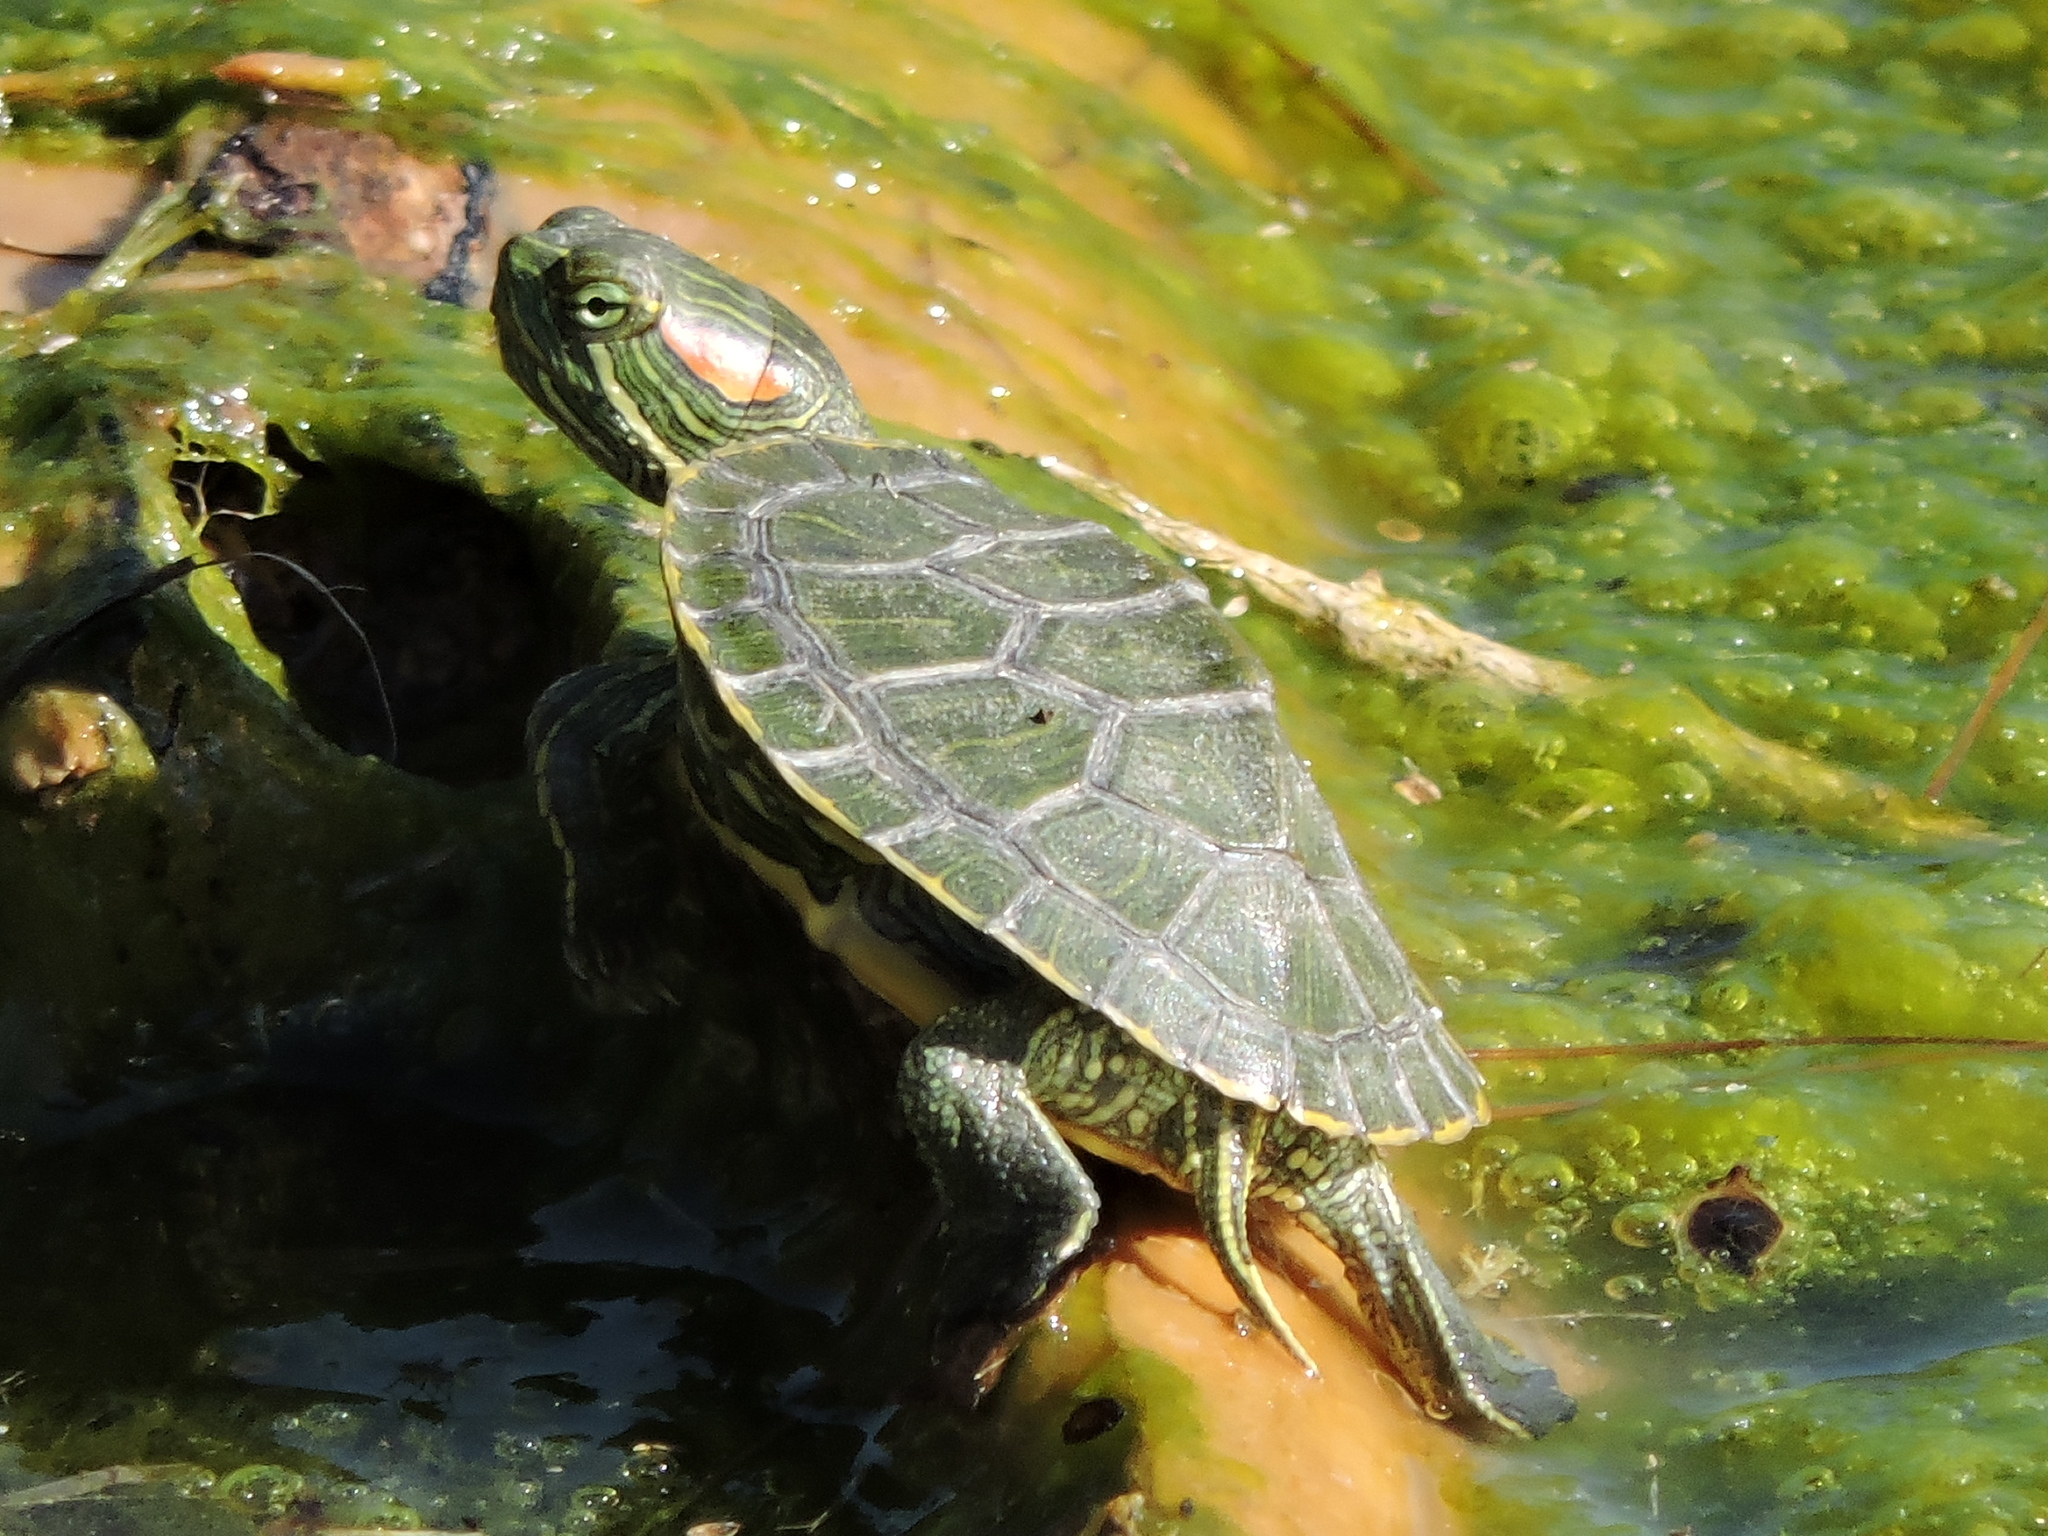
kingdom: Animalia
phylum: Chordata
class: Testudines
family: Emydidae
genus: Trachemys
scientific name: Trachemys scripta
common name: Slider
